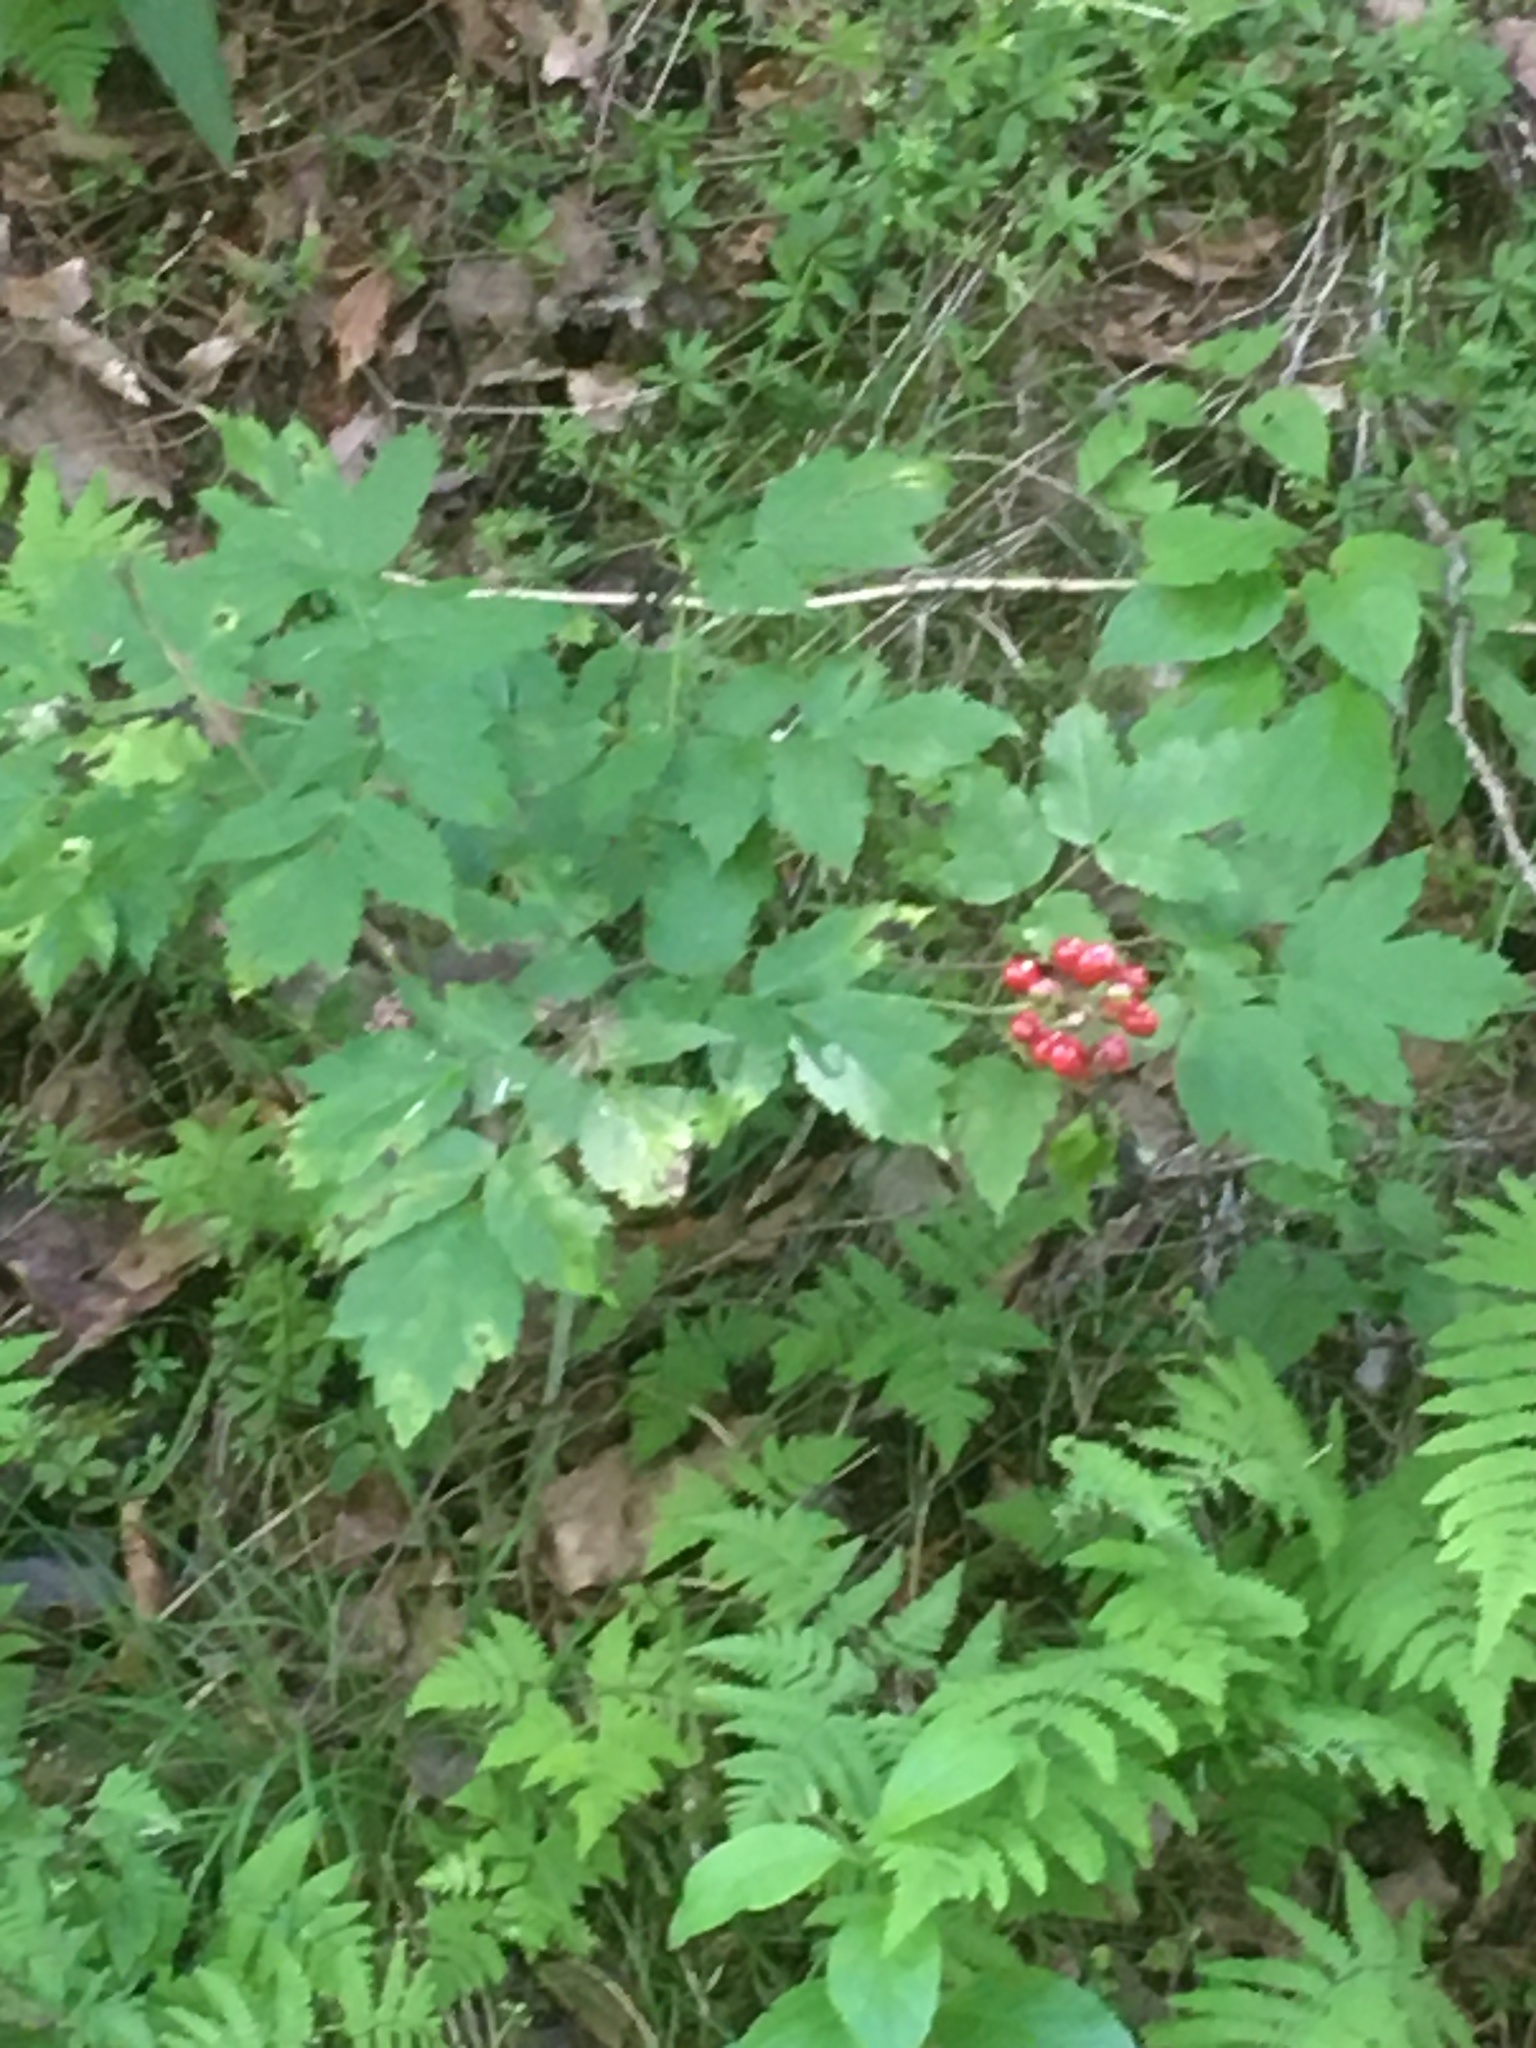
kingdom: Plantae
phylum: Tracheophyta
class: Magnoliopsida
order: Ranunculales
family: Ranunculaceae
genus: Actaea
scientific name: Actaea rubra
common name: Red baneberry
